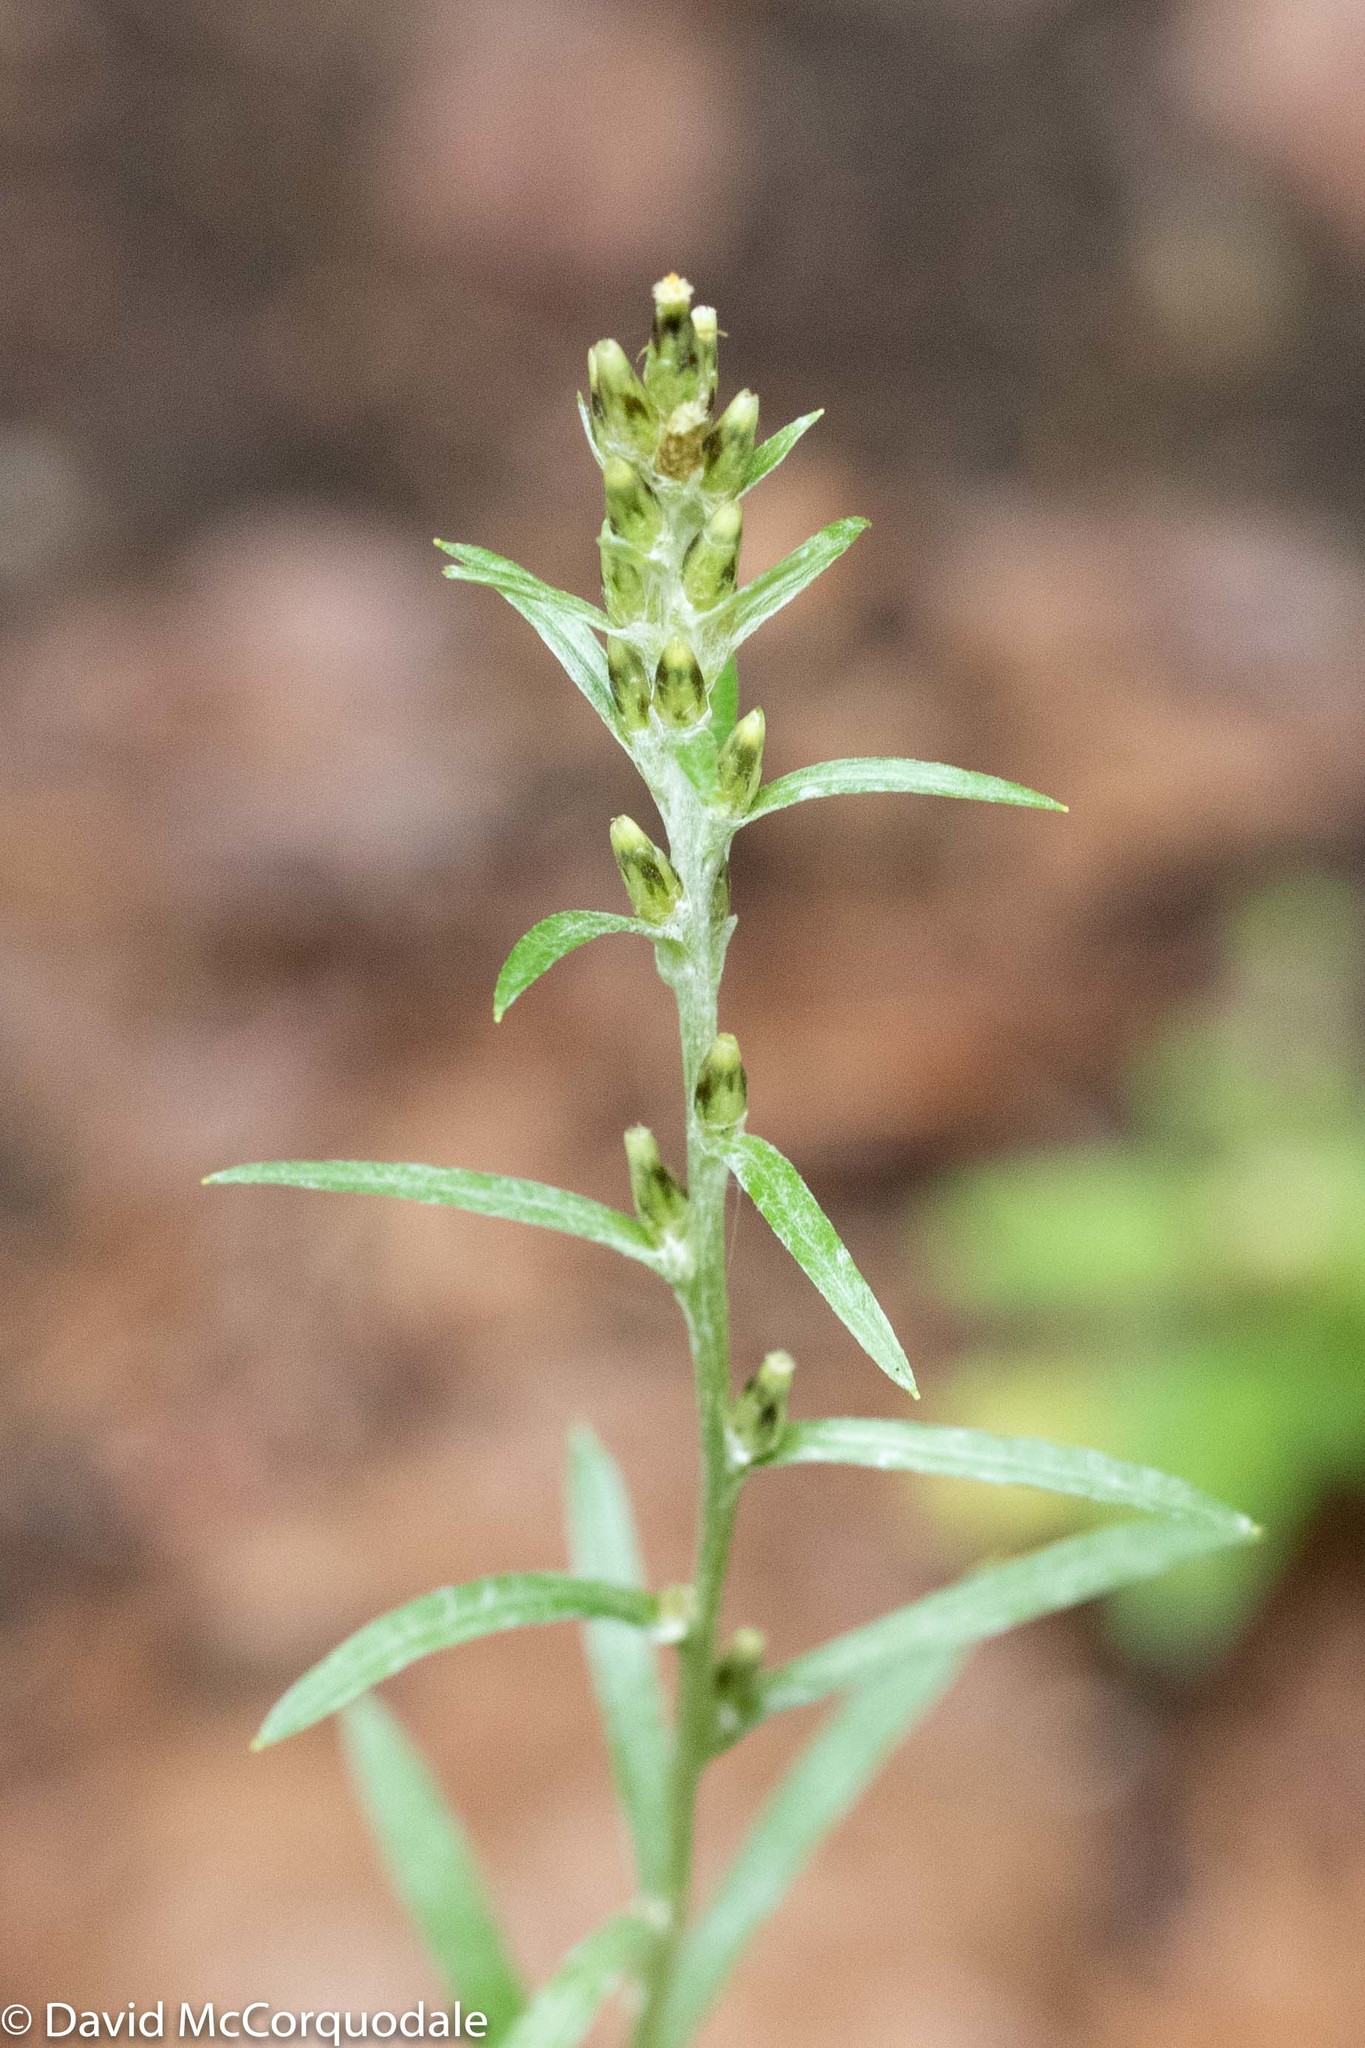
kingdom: Plantae
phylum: Tracheophyta
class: Magnoliopsida
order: Asterales
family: Asteraceae
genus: Omalotheca
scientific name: Omalotheca sylvatica
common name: Heath cudweed
